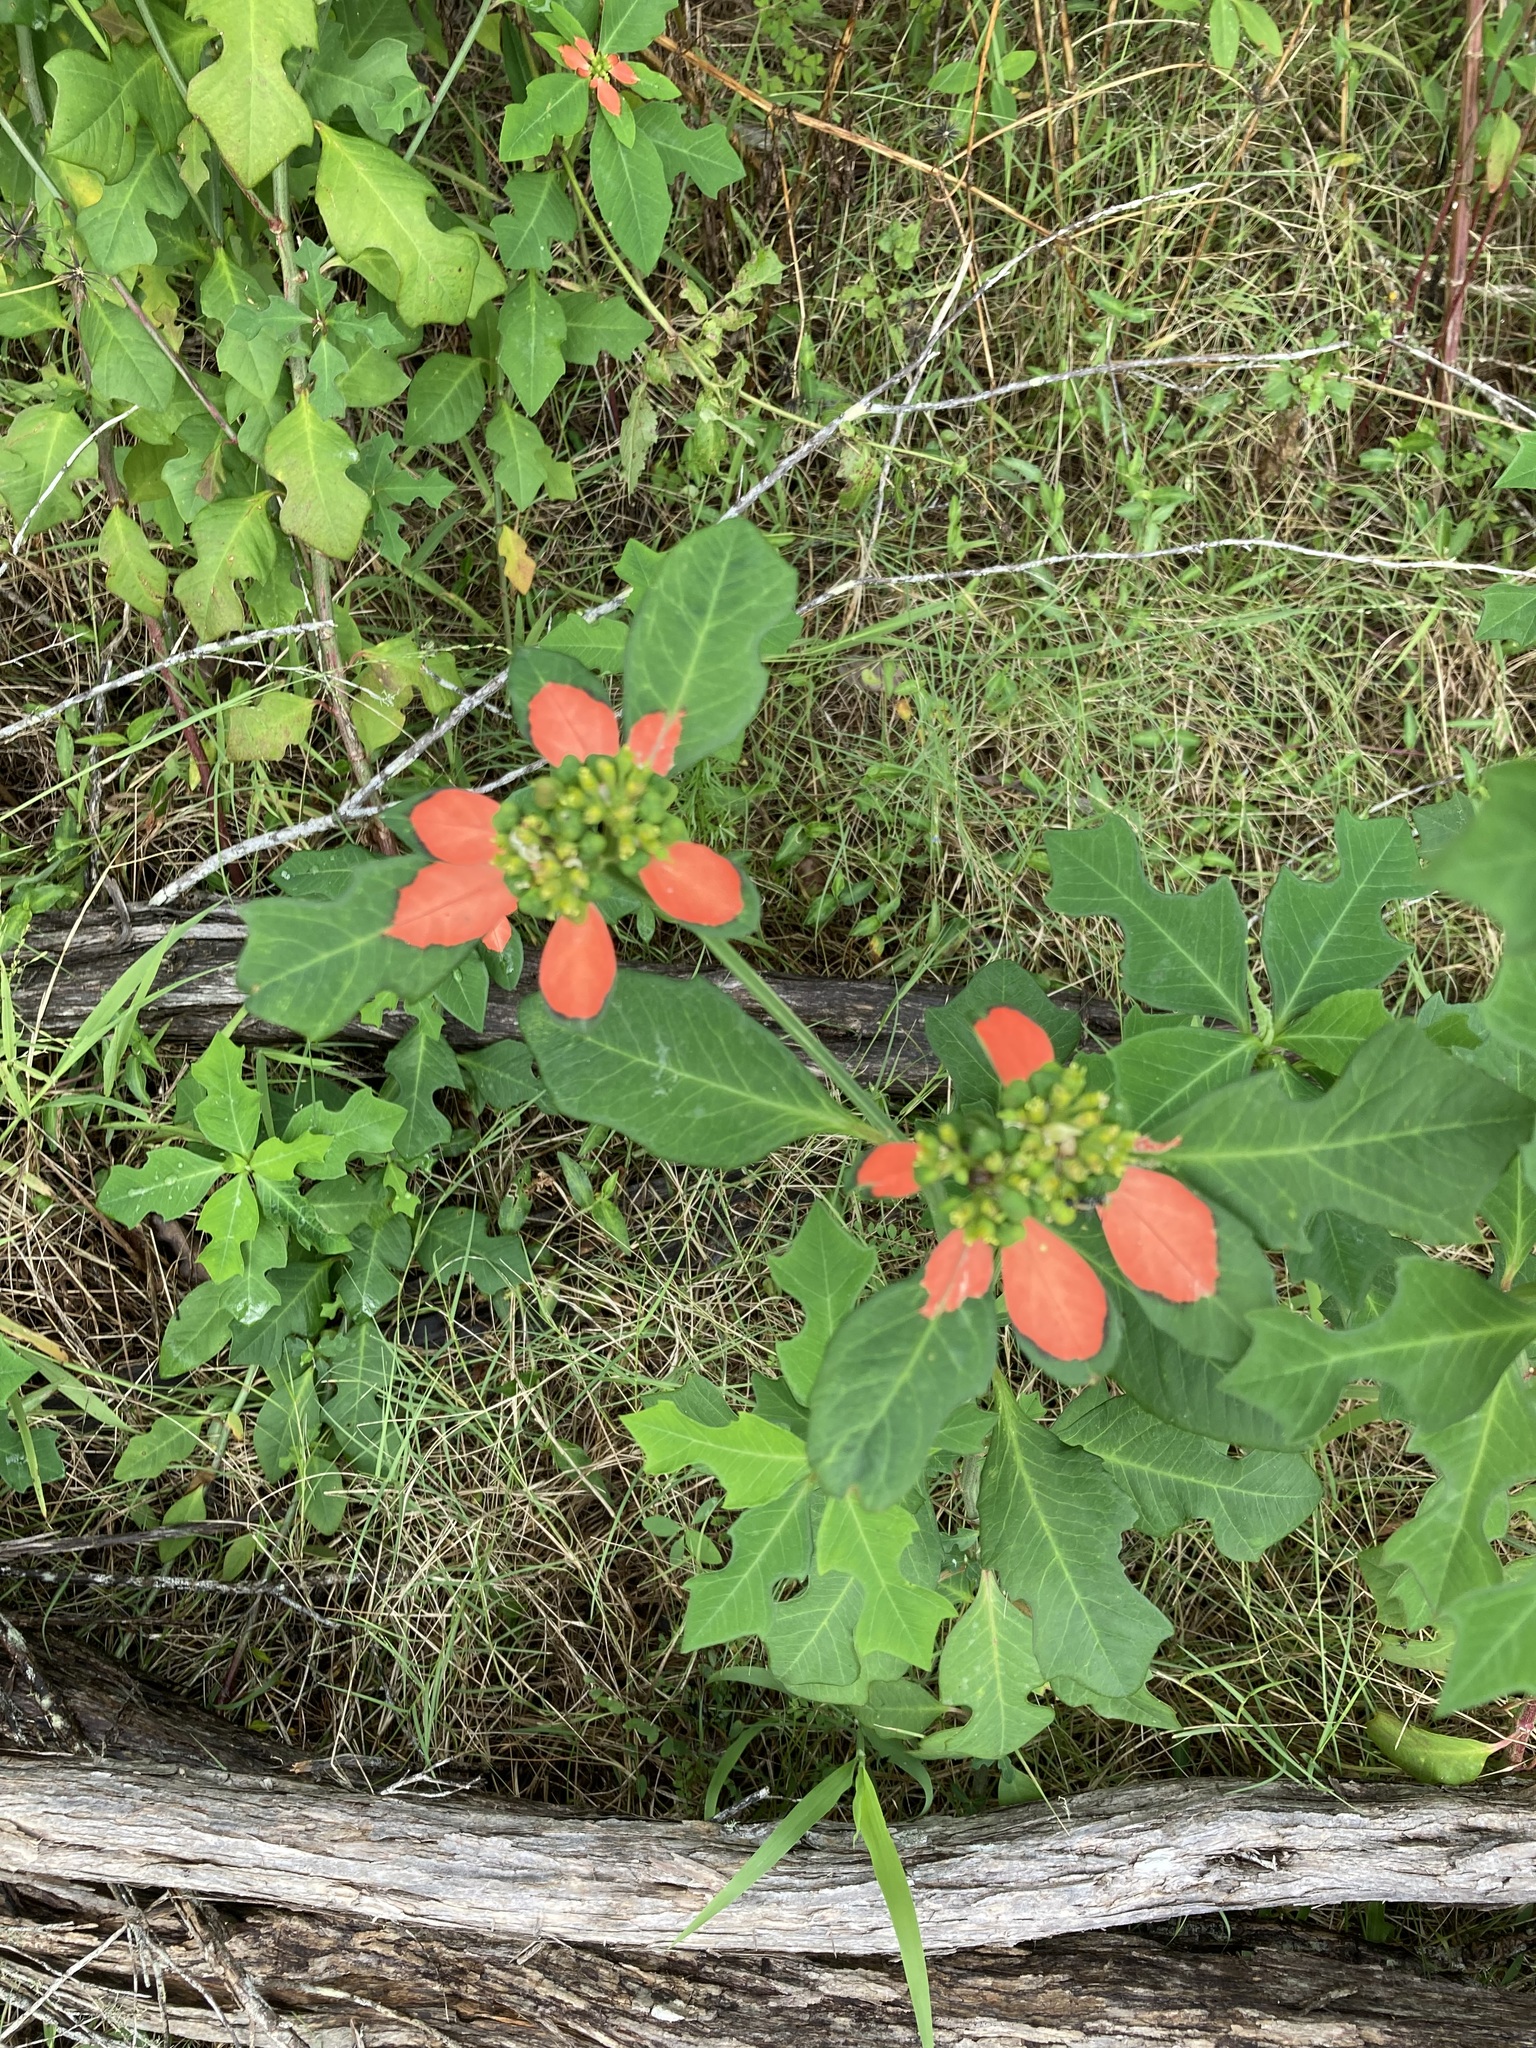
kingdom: Plantae
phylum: Tracheophyta
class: Magnoliopsida
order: Malpighiales
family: Euphorbiaceae
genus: Euphorbia
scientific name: Euphorbia heterophylla
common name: Mexican fireplant
